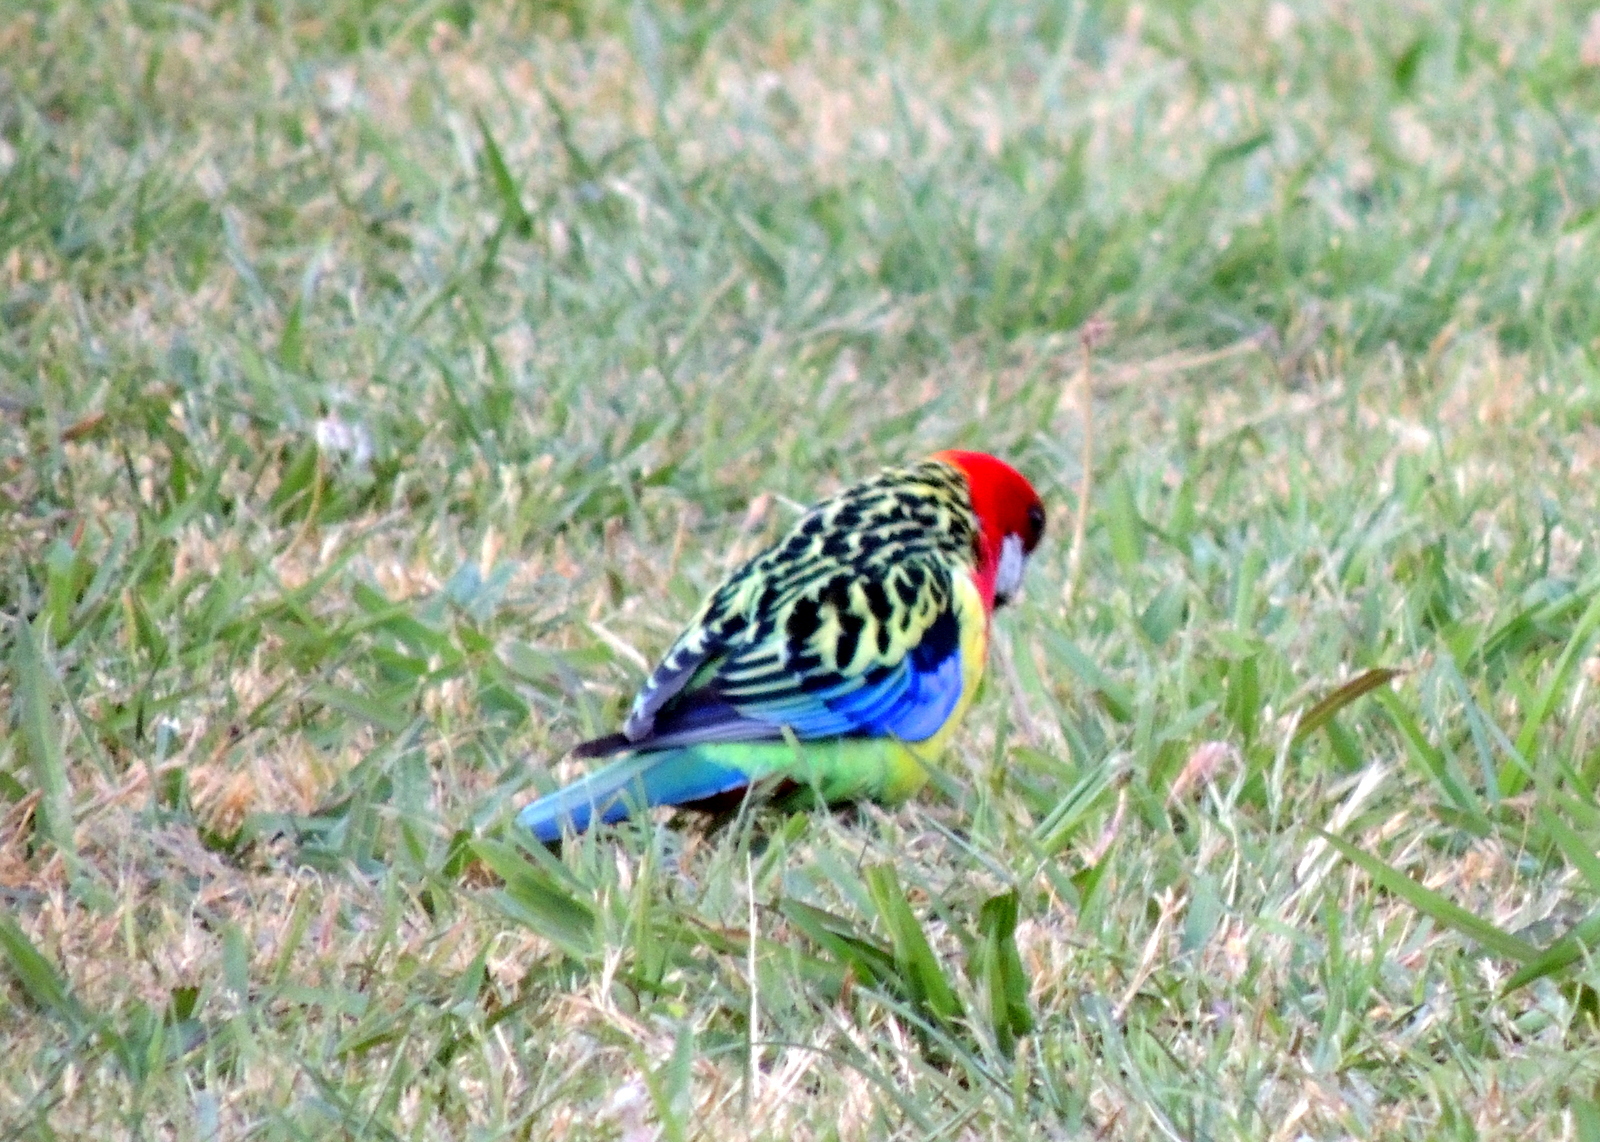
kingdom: Animalia
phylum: Chordata
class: Aves
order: Psittaciformes
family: Psittacidae
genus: Platycercus
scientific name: Platycercus eximius
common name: Eastern rosella
